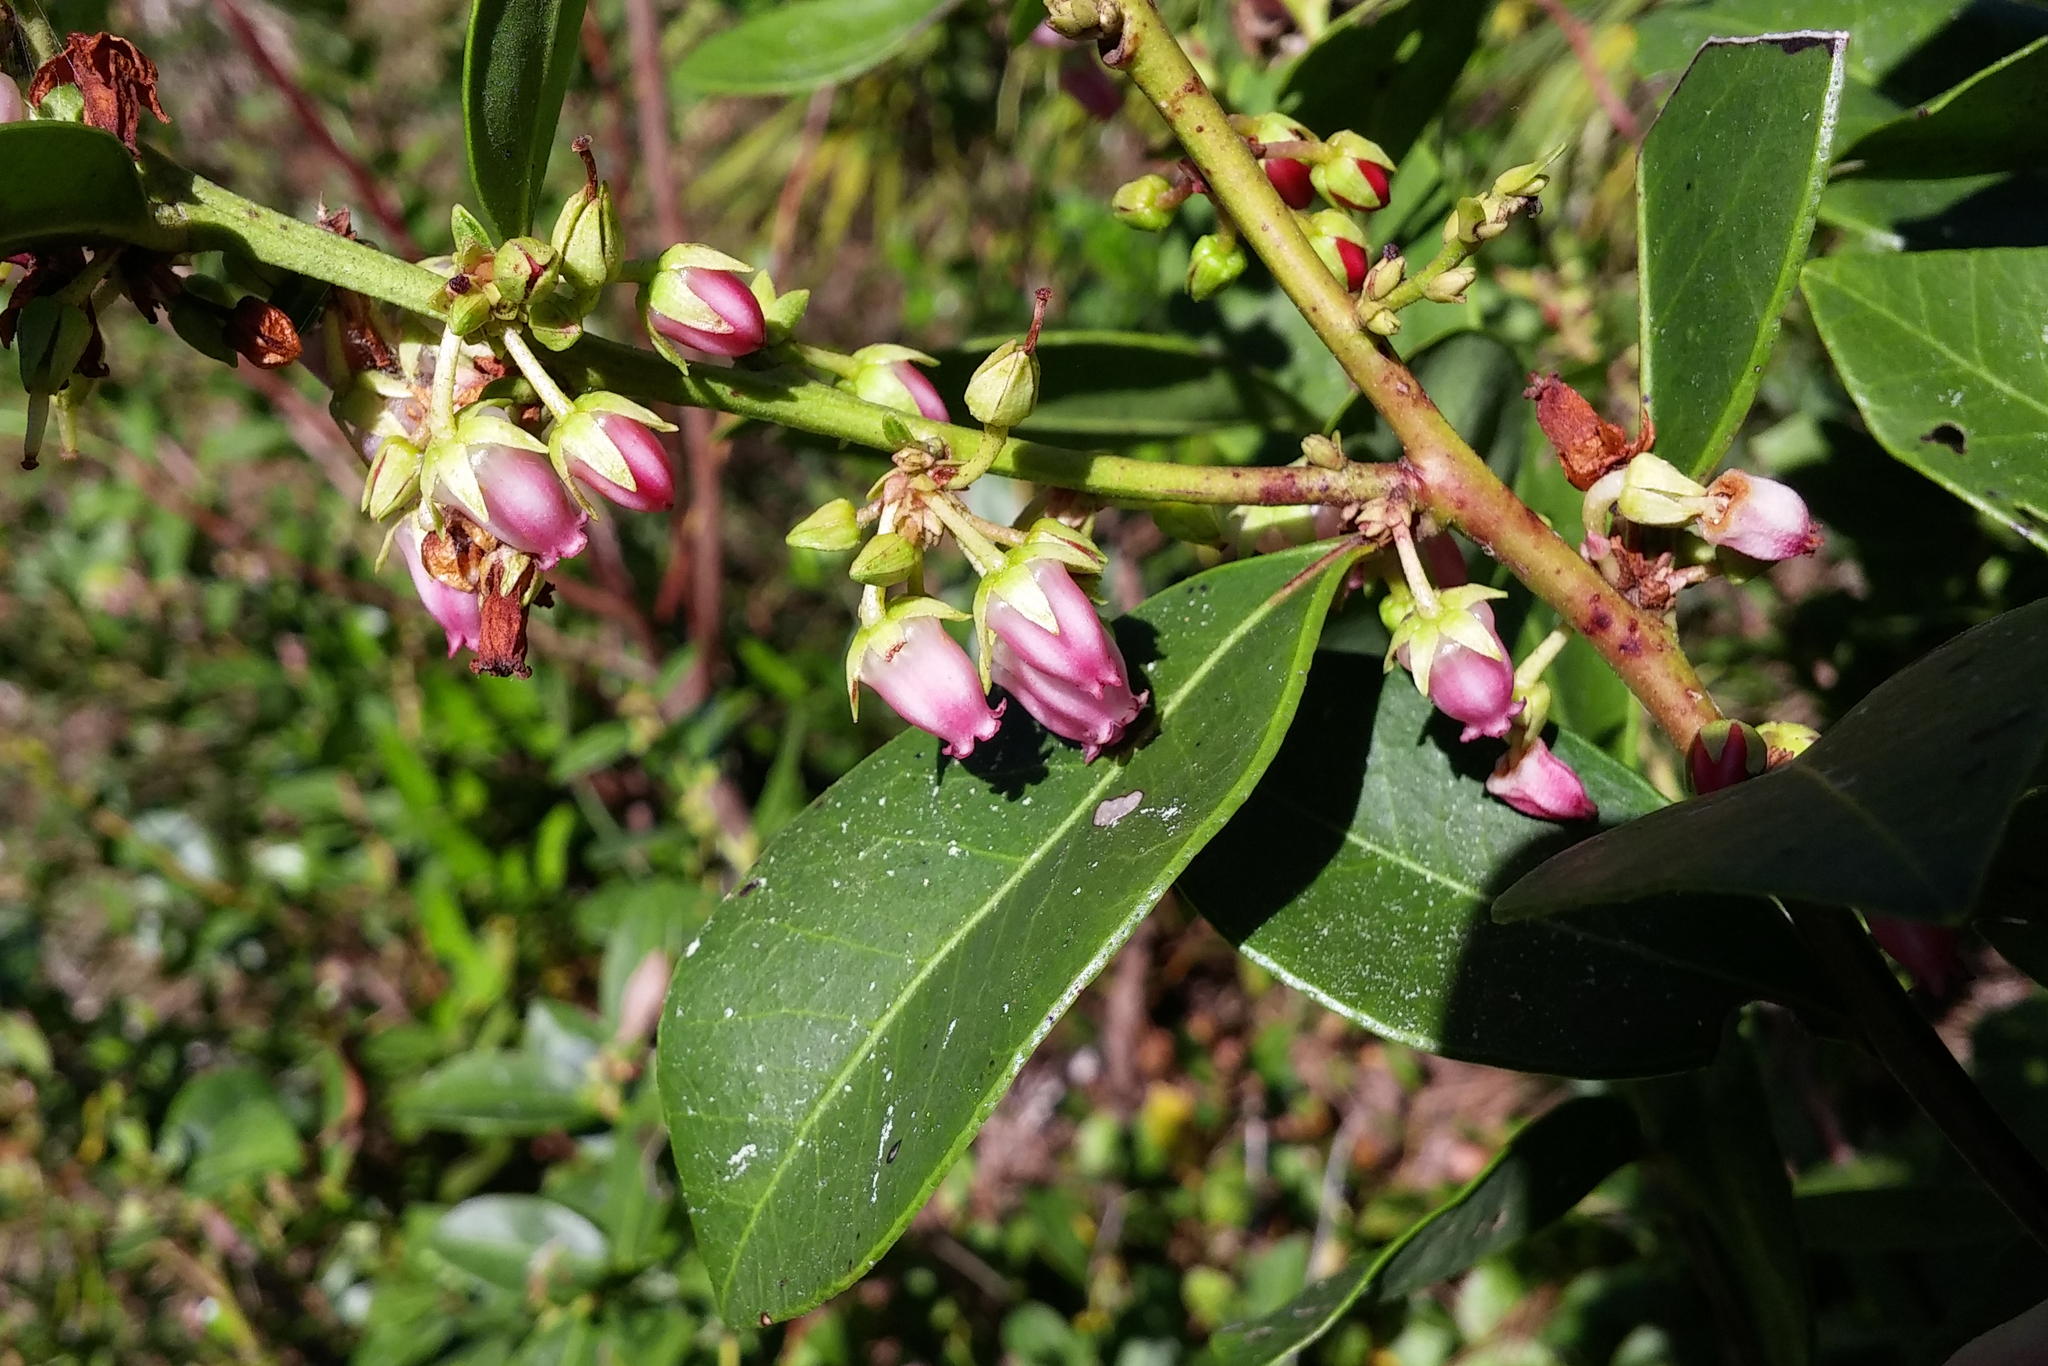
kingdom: Plantae
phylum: Tracheophyta
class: Magnoliopsida
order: Ericales
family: Ericaceae
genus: Lyonia
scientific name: Lyonia lucida
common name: Fetterbush
